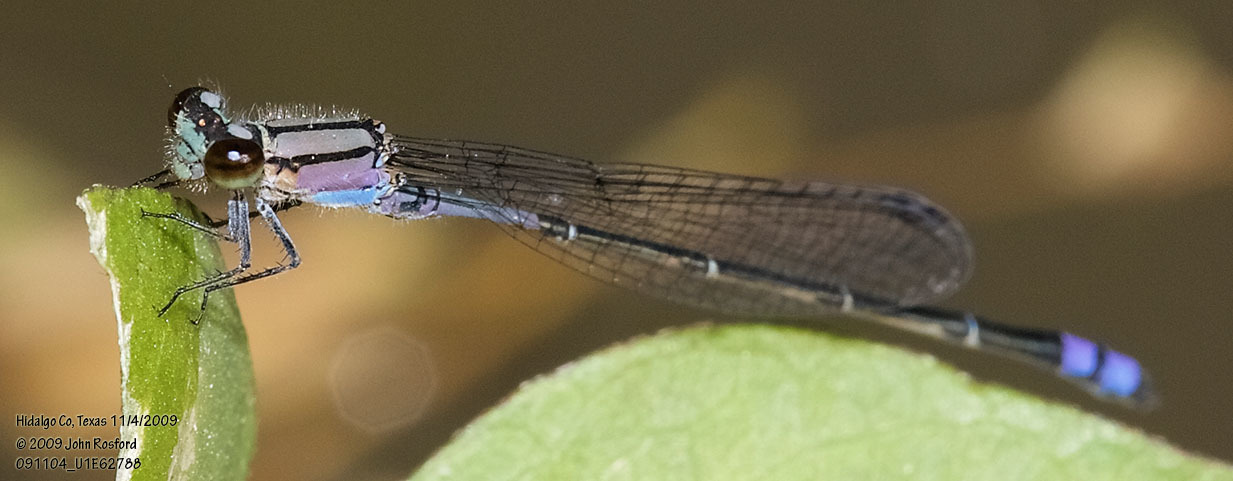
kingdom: Animalia
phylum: Arthropoda
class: Insecta
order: Odonata
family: Coenagrionidae
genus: Enallagma
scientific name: Enallagma novaehispaniae
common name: Neotropical bluet
